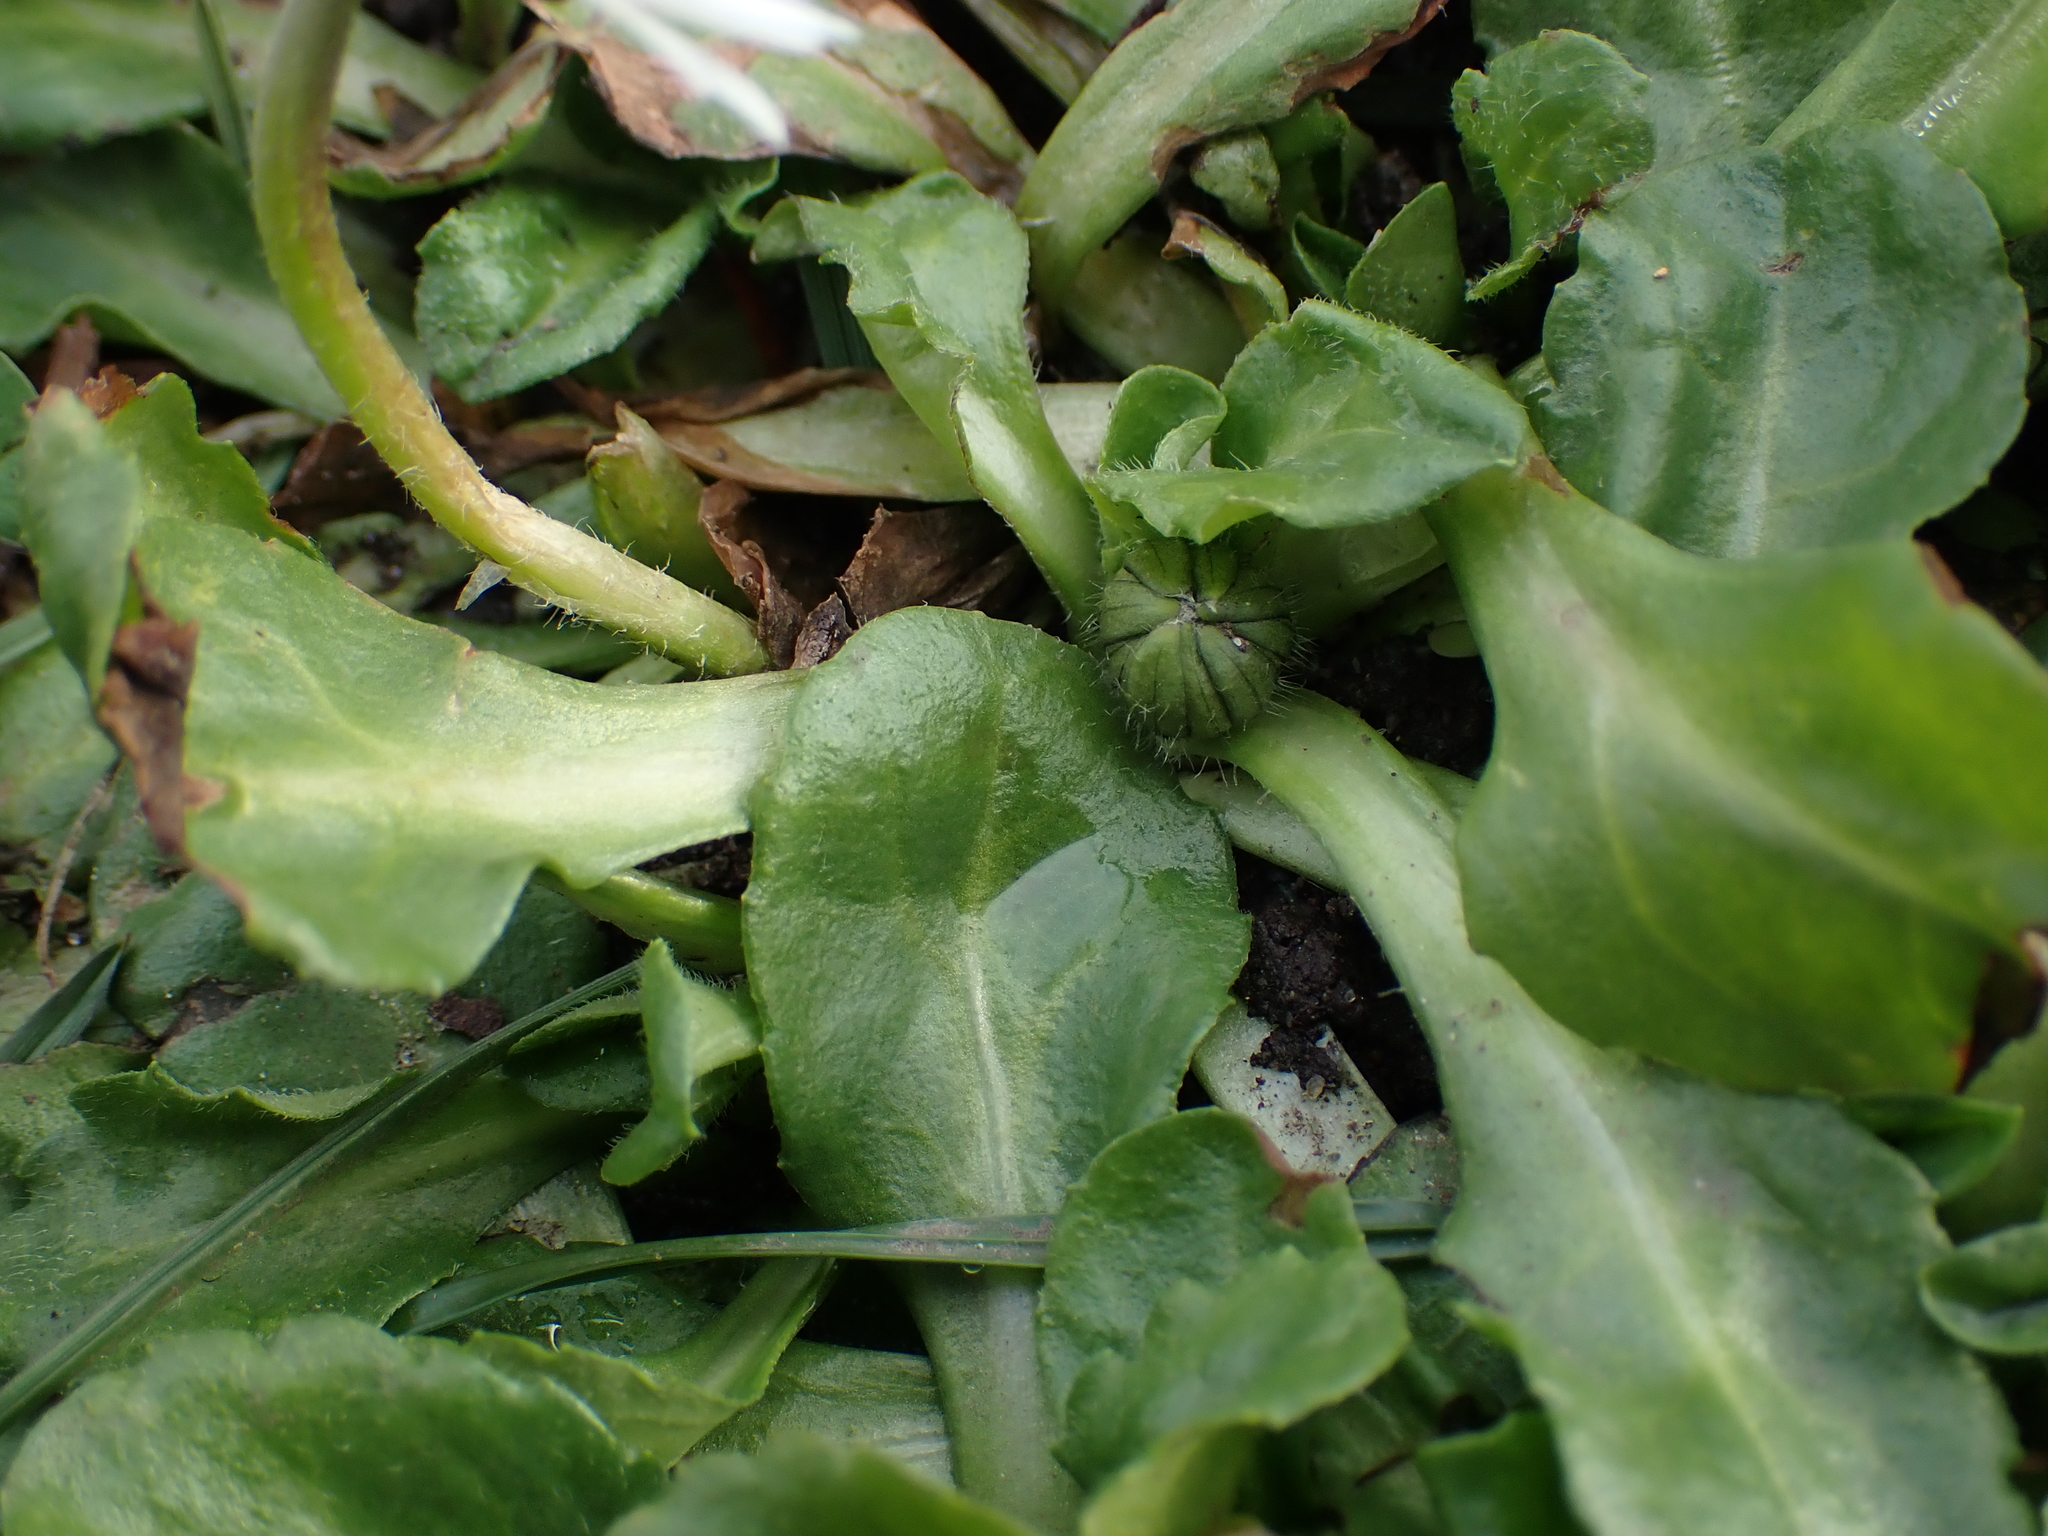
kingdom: Plantae
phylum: Tracheophyta
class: Magnoliopsida
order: Asterales
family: Asteraceae
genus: Bellis
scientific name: Bellis perennis
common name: Lawndaisy
